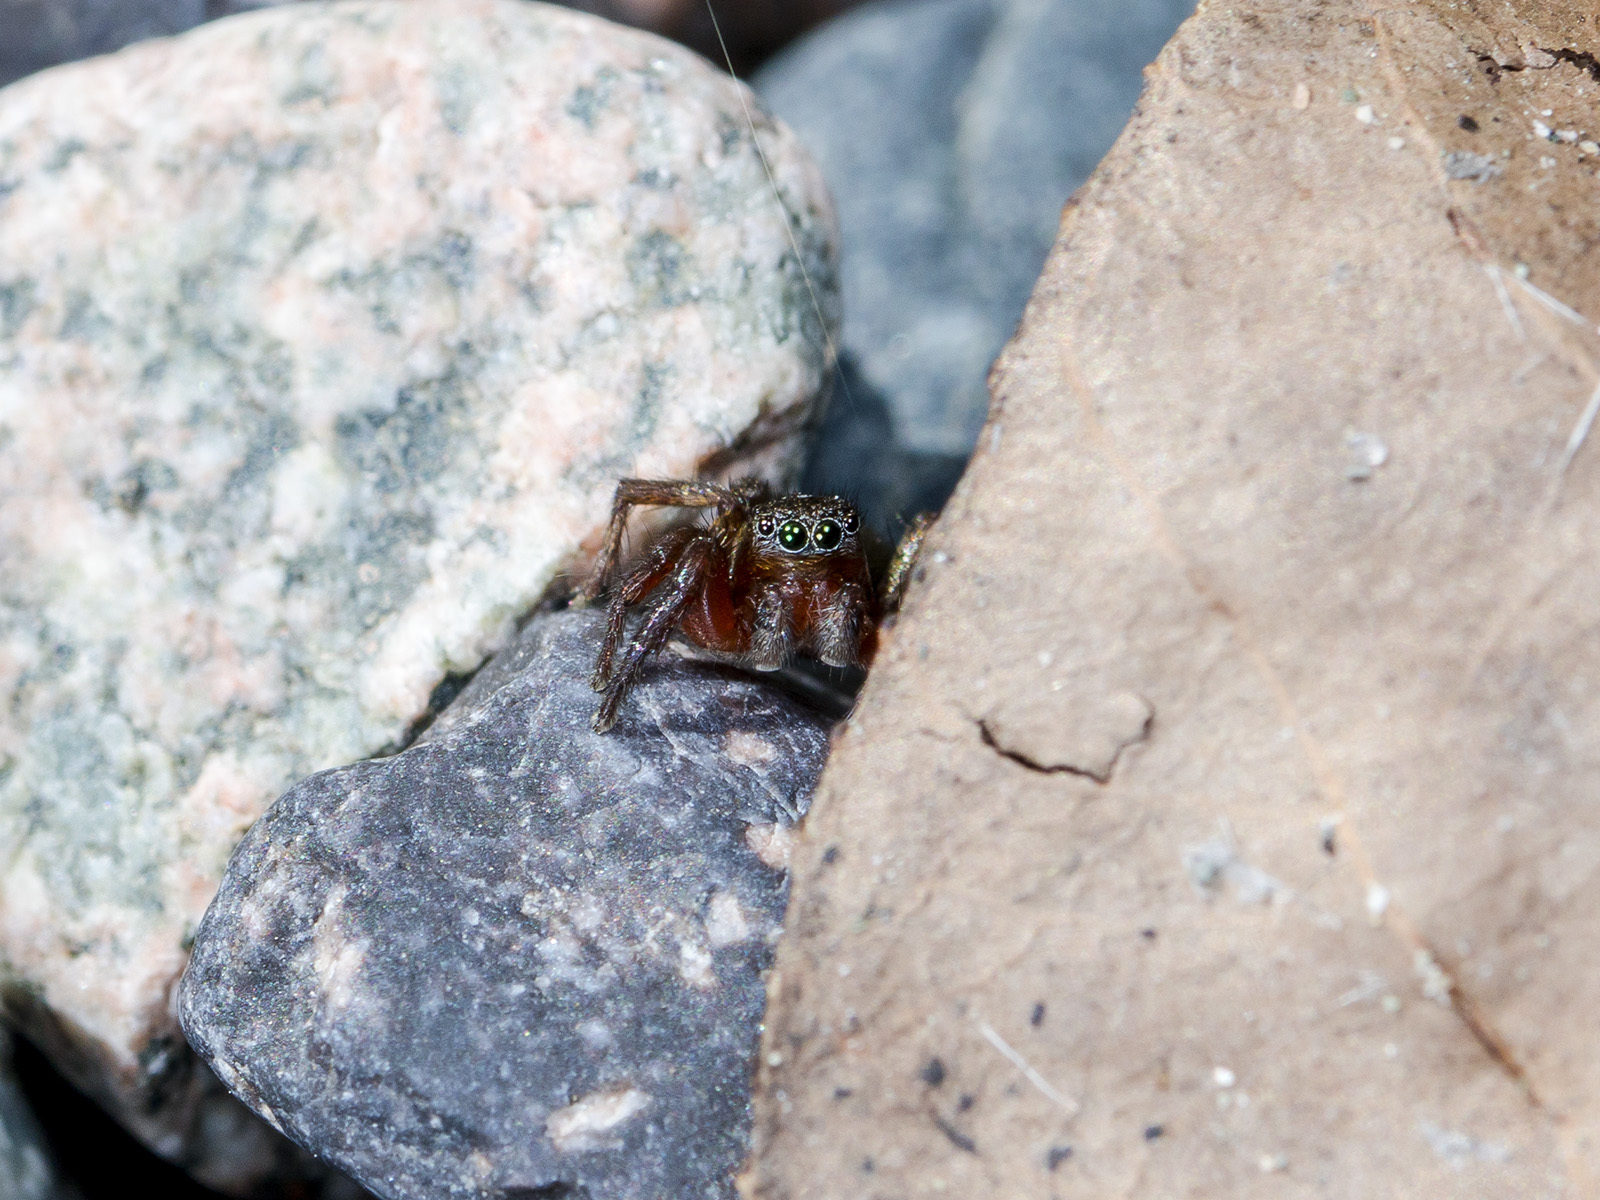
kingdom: Animalia
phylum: Arthropoda
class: Arachnida
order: Araneae
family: Salticidae
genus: Phlegra
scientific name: Phlegra fasciata
